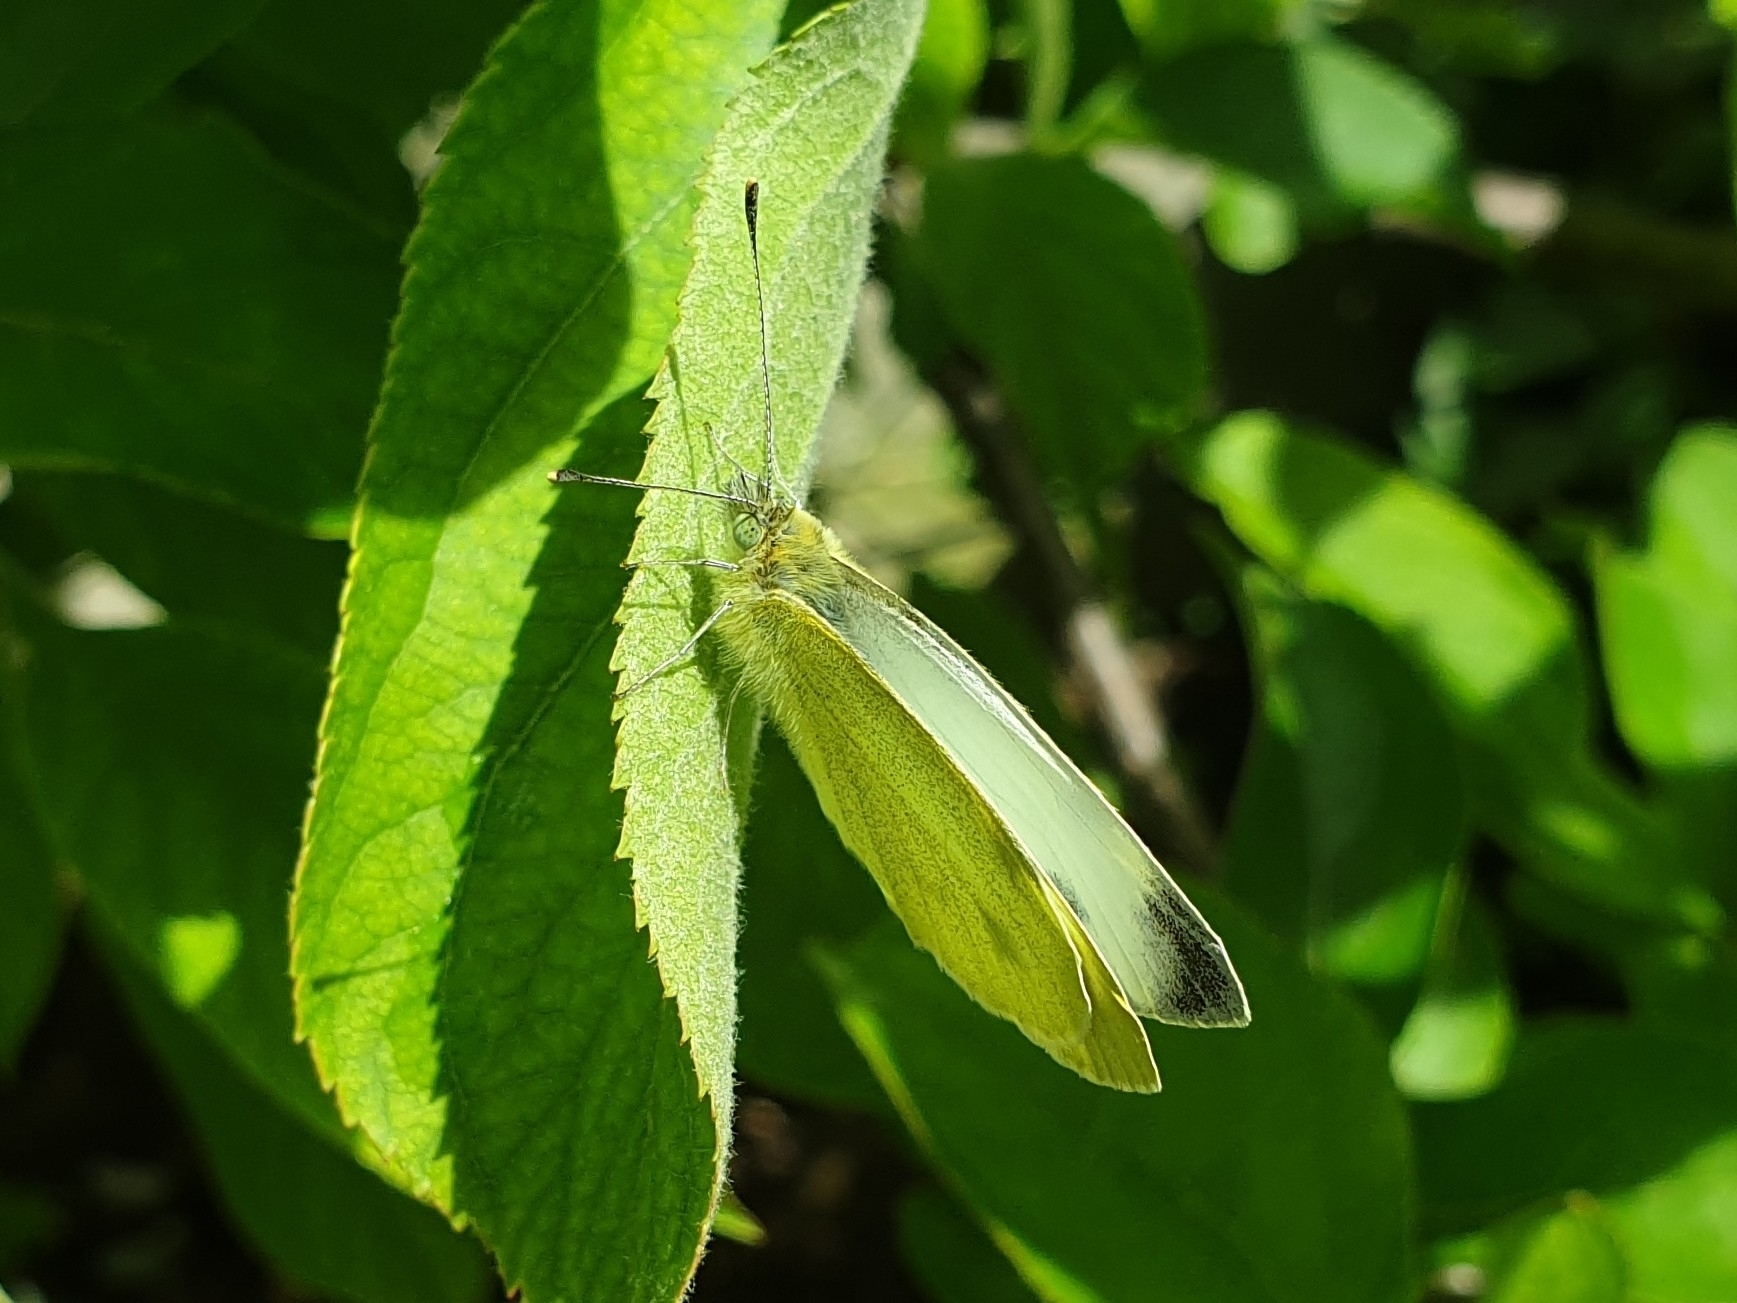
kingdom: Animalia
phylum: Arthropoda
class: Insecta
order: Lepidoptera
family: Pieridae
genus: Pieris
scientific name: Pieris mannii
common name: Southern small white
